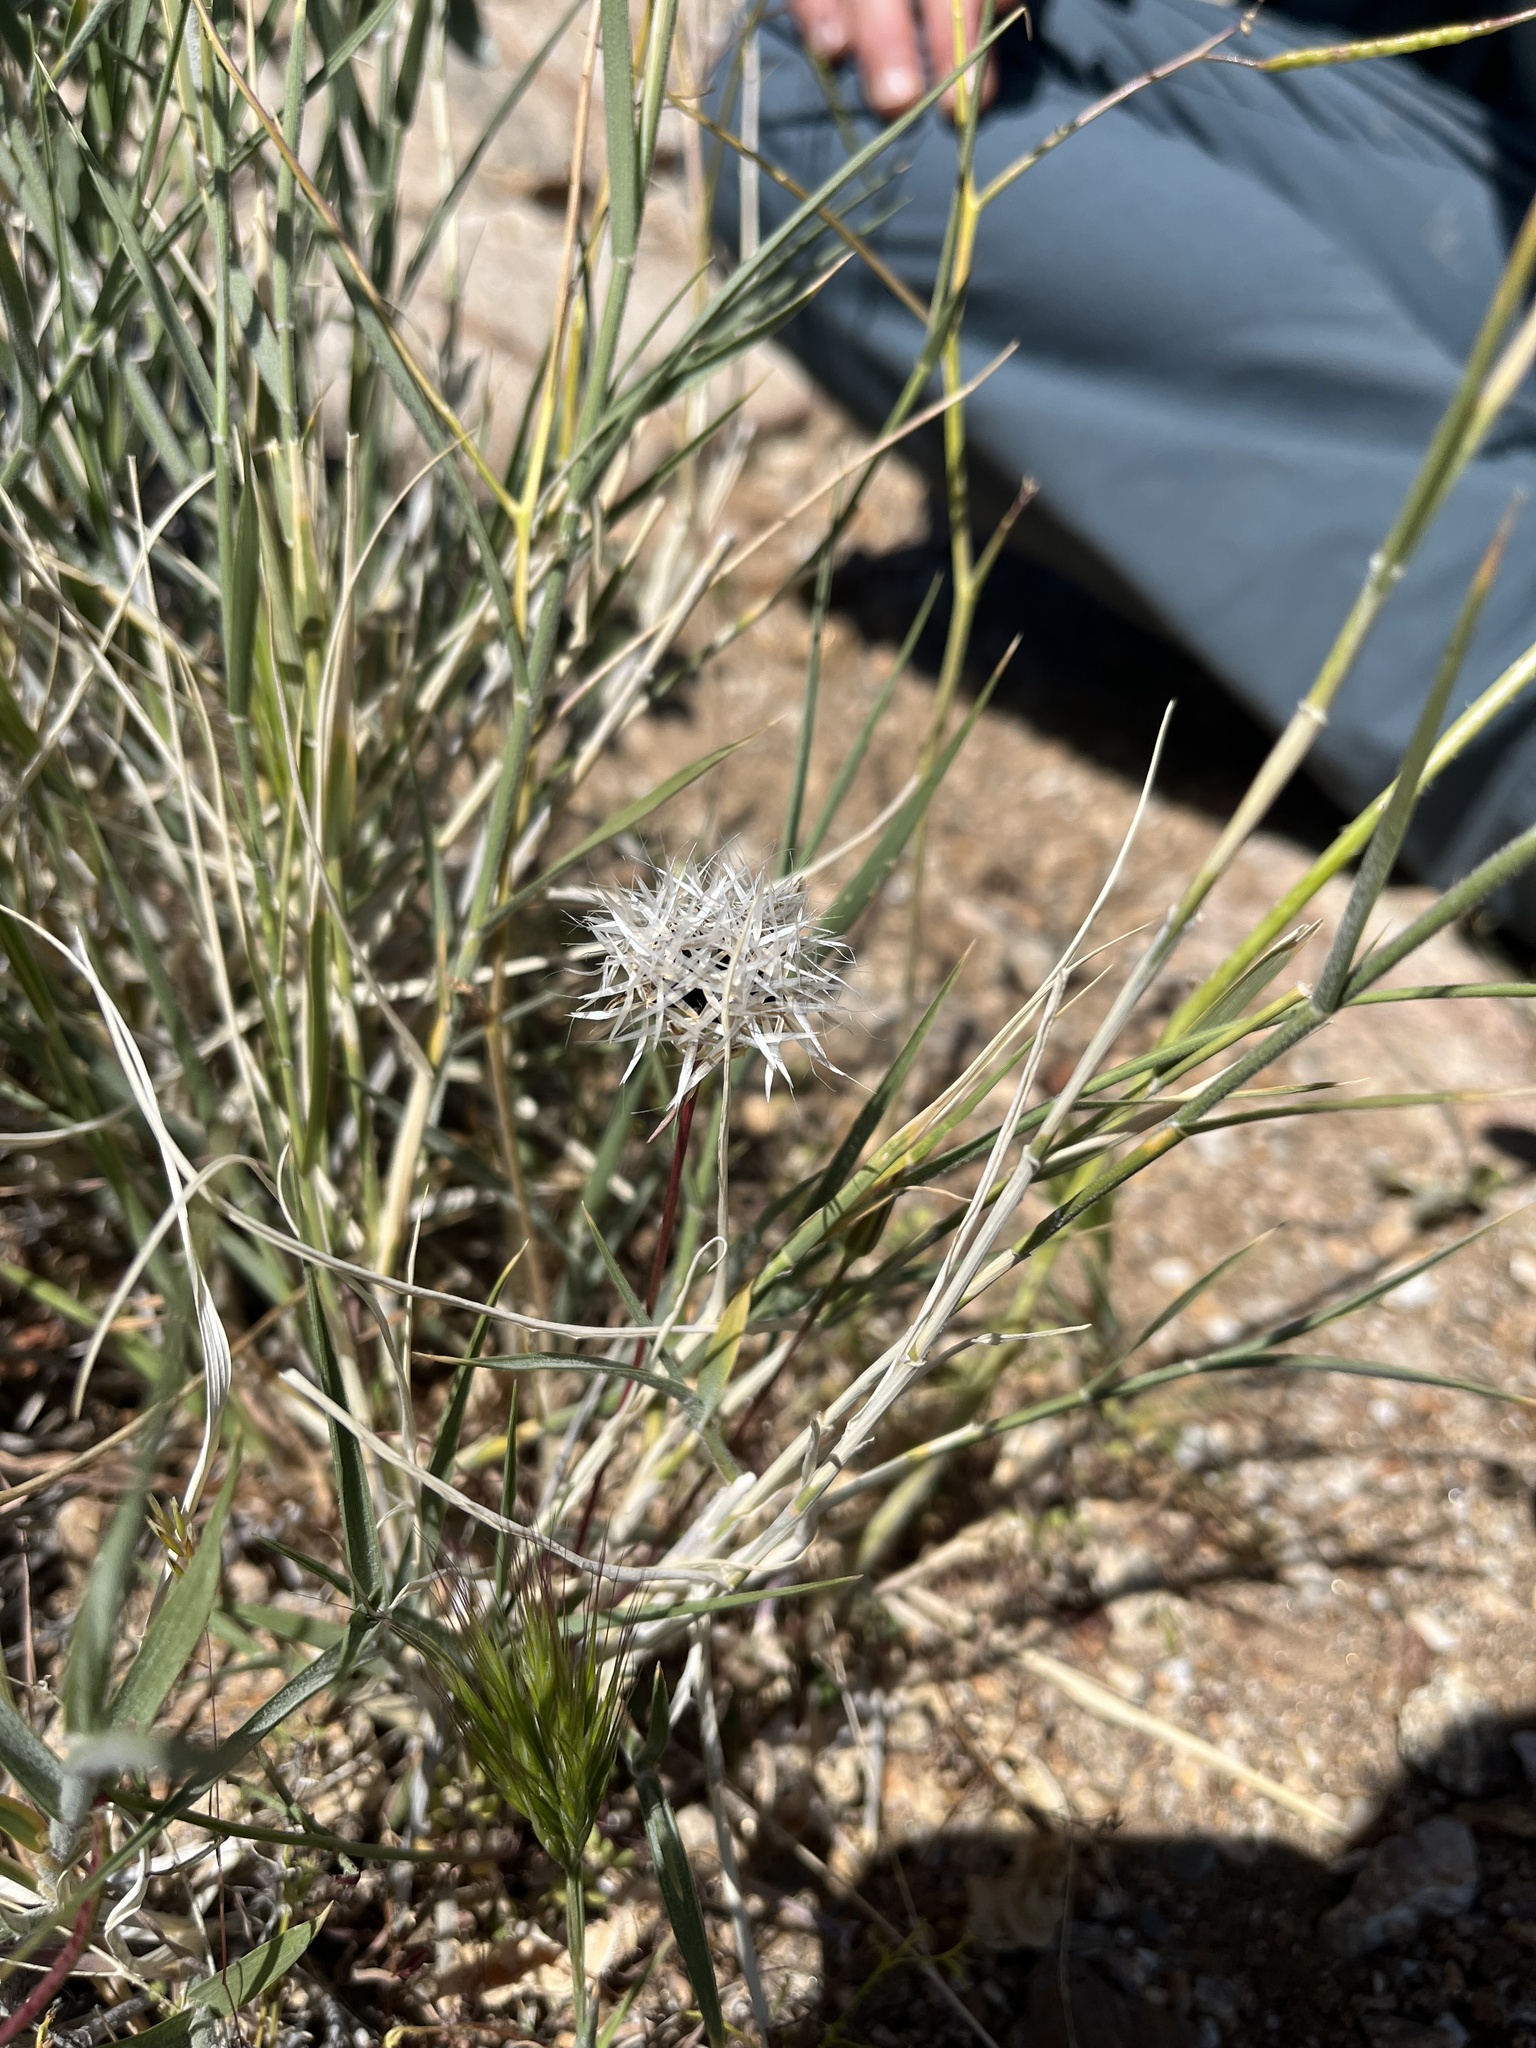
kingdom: Plantae
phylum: Tracheophyta
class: Magnoliopsida
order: Asterales
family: Asteraceae
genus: Microseris
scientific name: Microseris lindleyi
